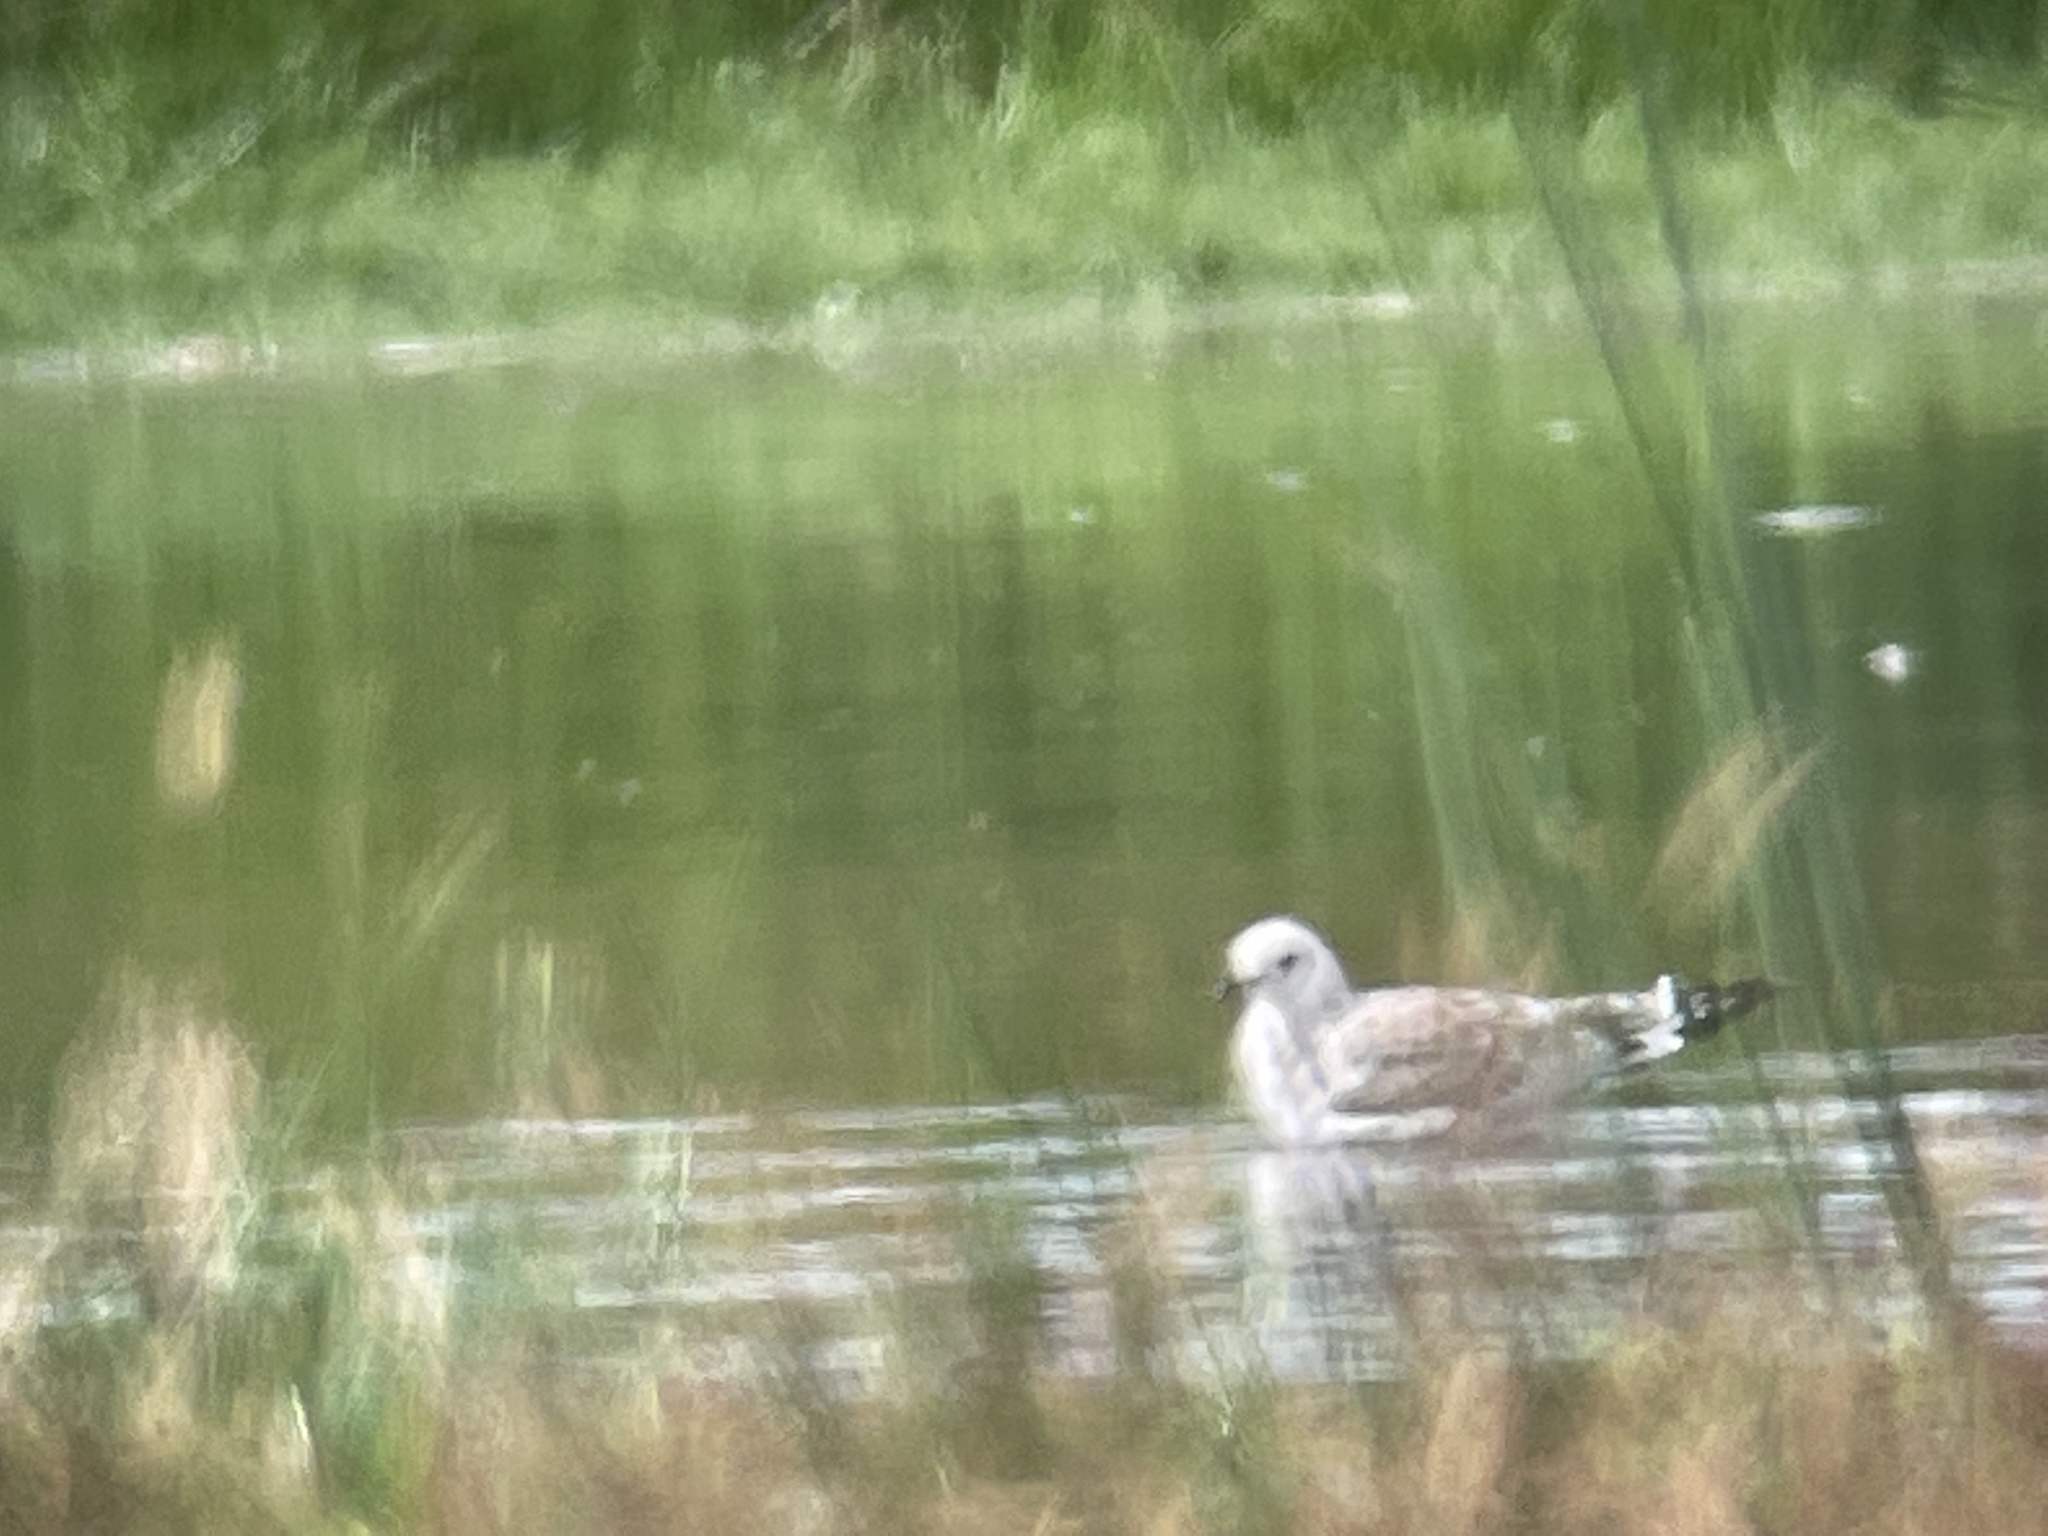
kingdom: Animalia
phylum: Chordata
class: Aves
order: Charadriiformes
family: Laridae
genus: Ichthyaetus
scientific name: Ichthyaetus melanocephalus
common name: Mediterranean gull
